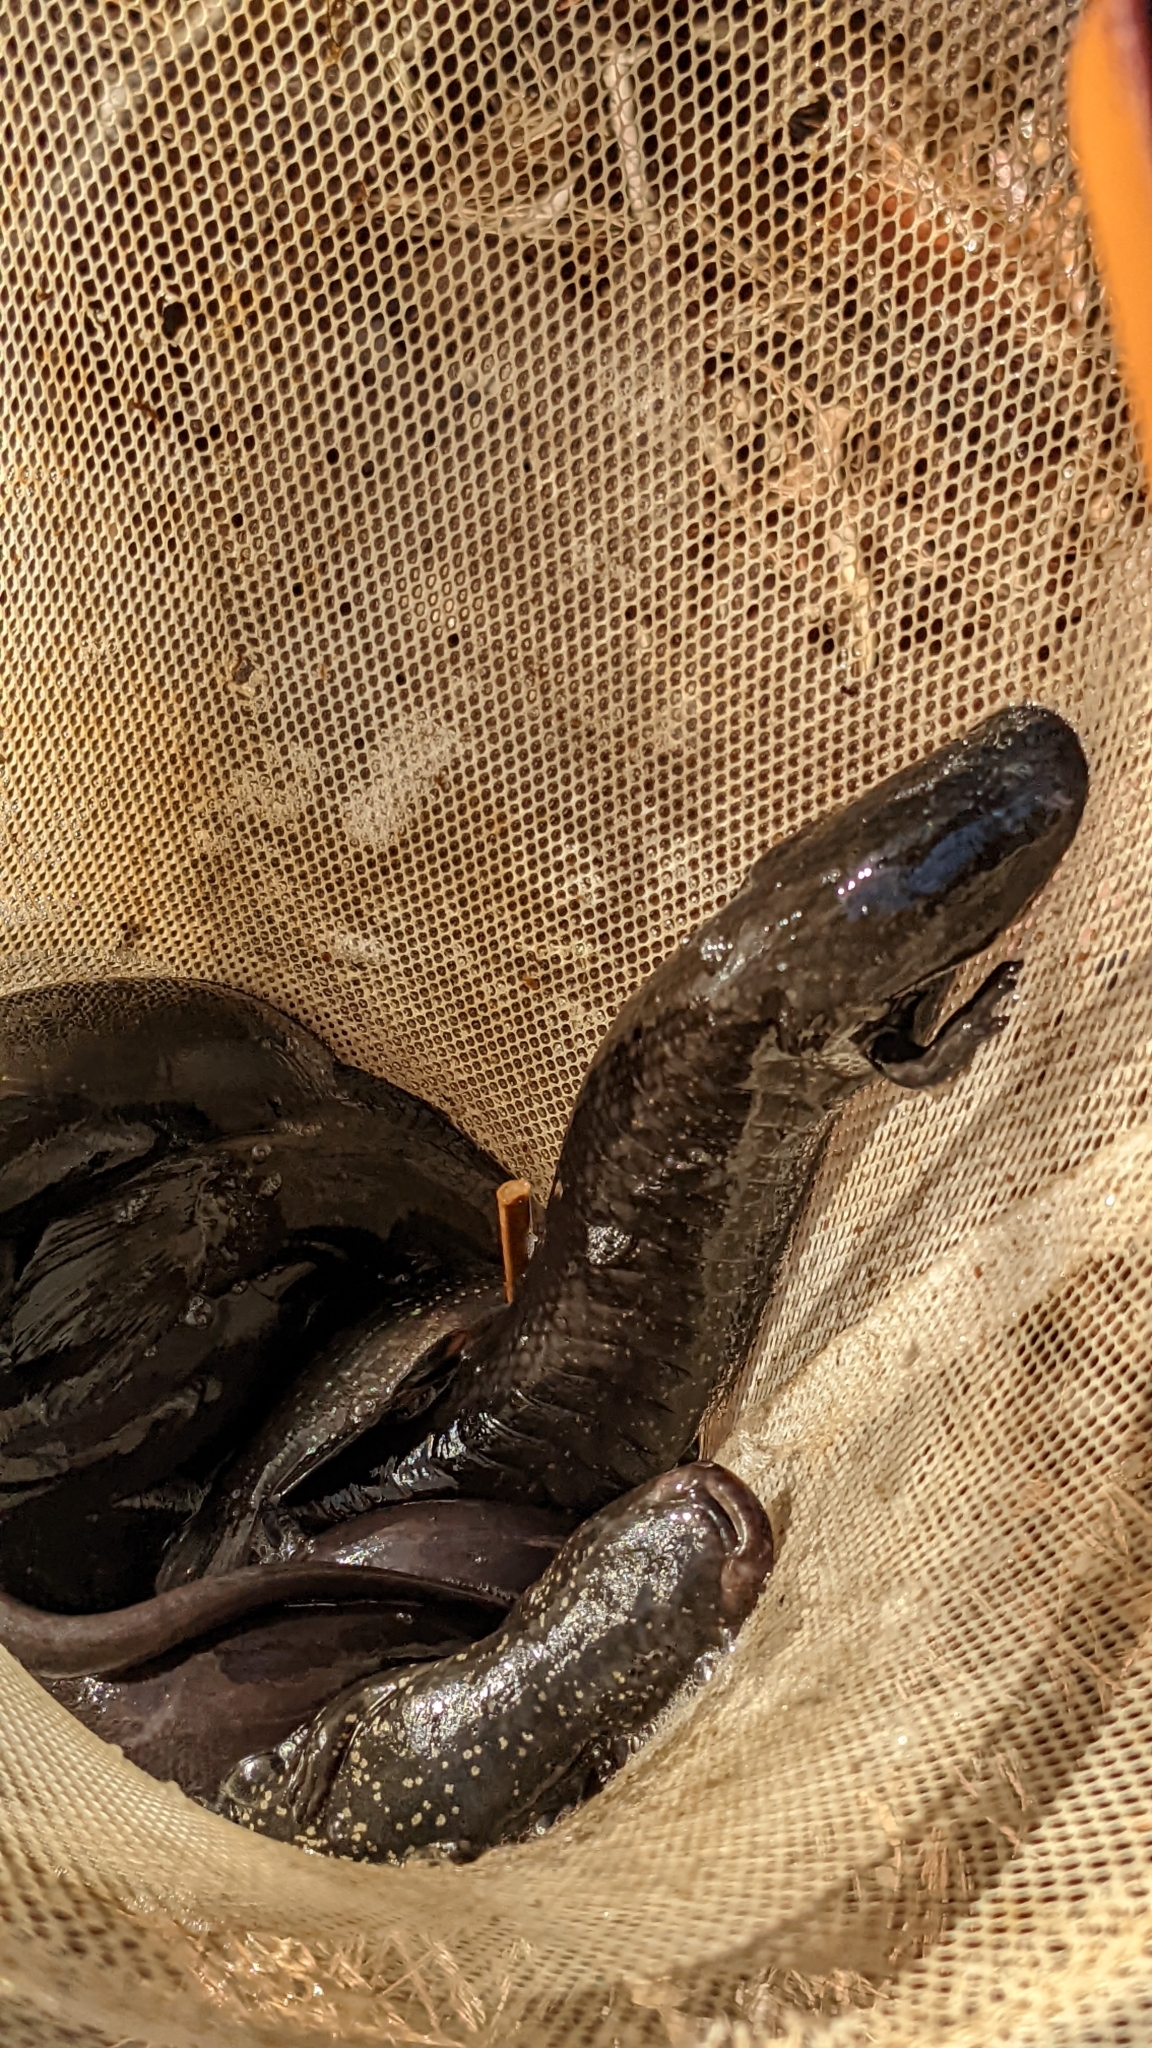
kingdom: Animalia
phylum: Chordata
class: Amphibia
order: Caudata
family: Sirenidae
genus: Siren
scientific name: Siren lacertina
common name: Greater siren
